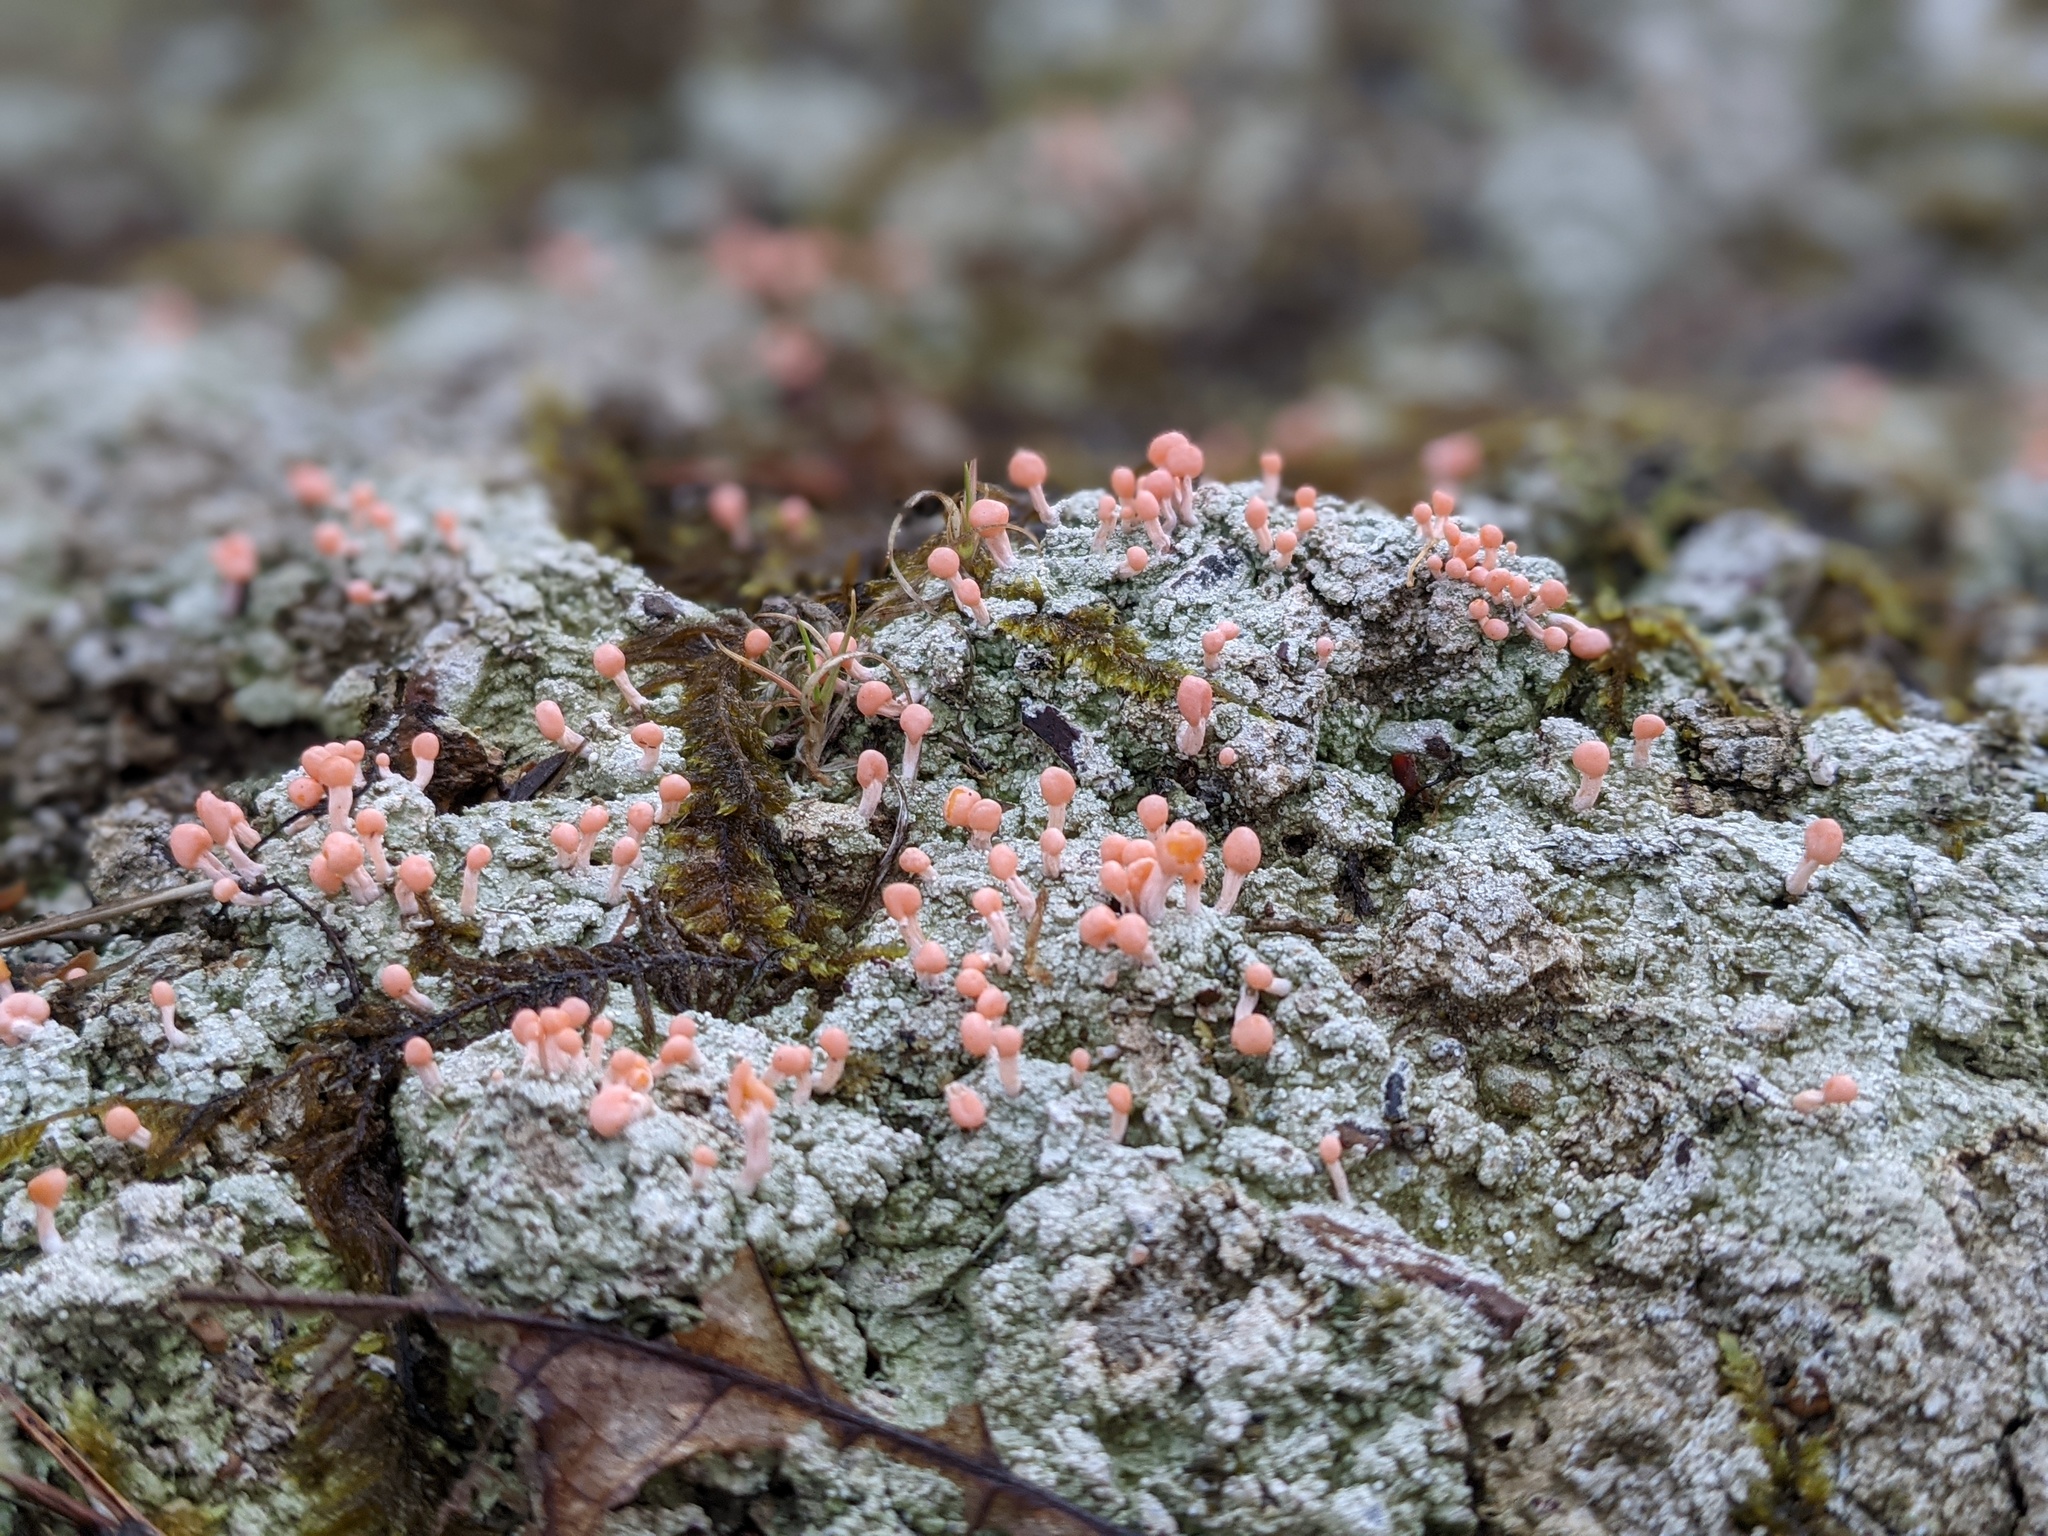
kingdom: Fungi
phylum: Ascomycota
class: Lecanoromycetes
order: Pertusariales
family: Icmadophilaceae
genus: Dibaeis
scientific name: Dibaeis baeomyces
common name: Pink earth lichen
